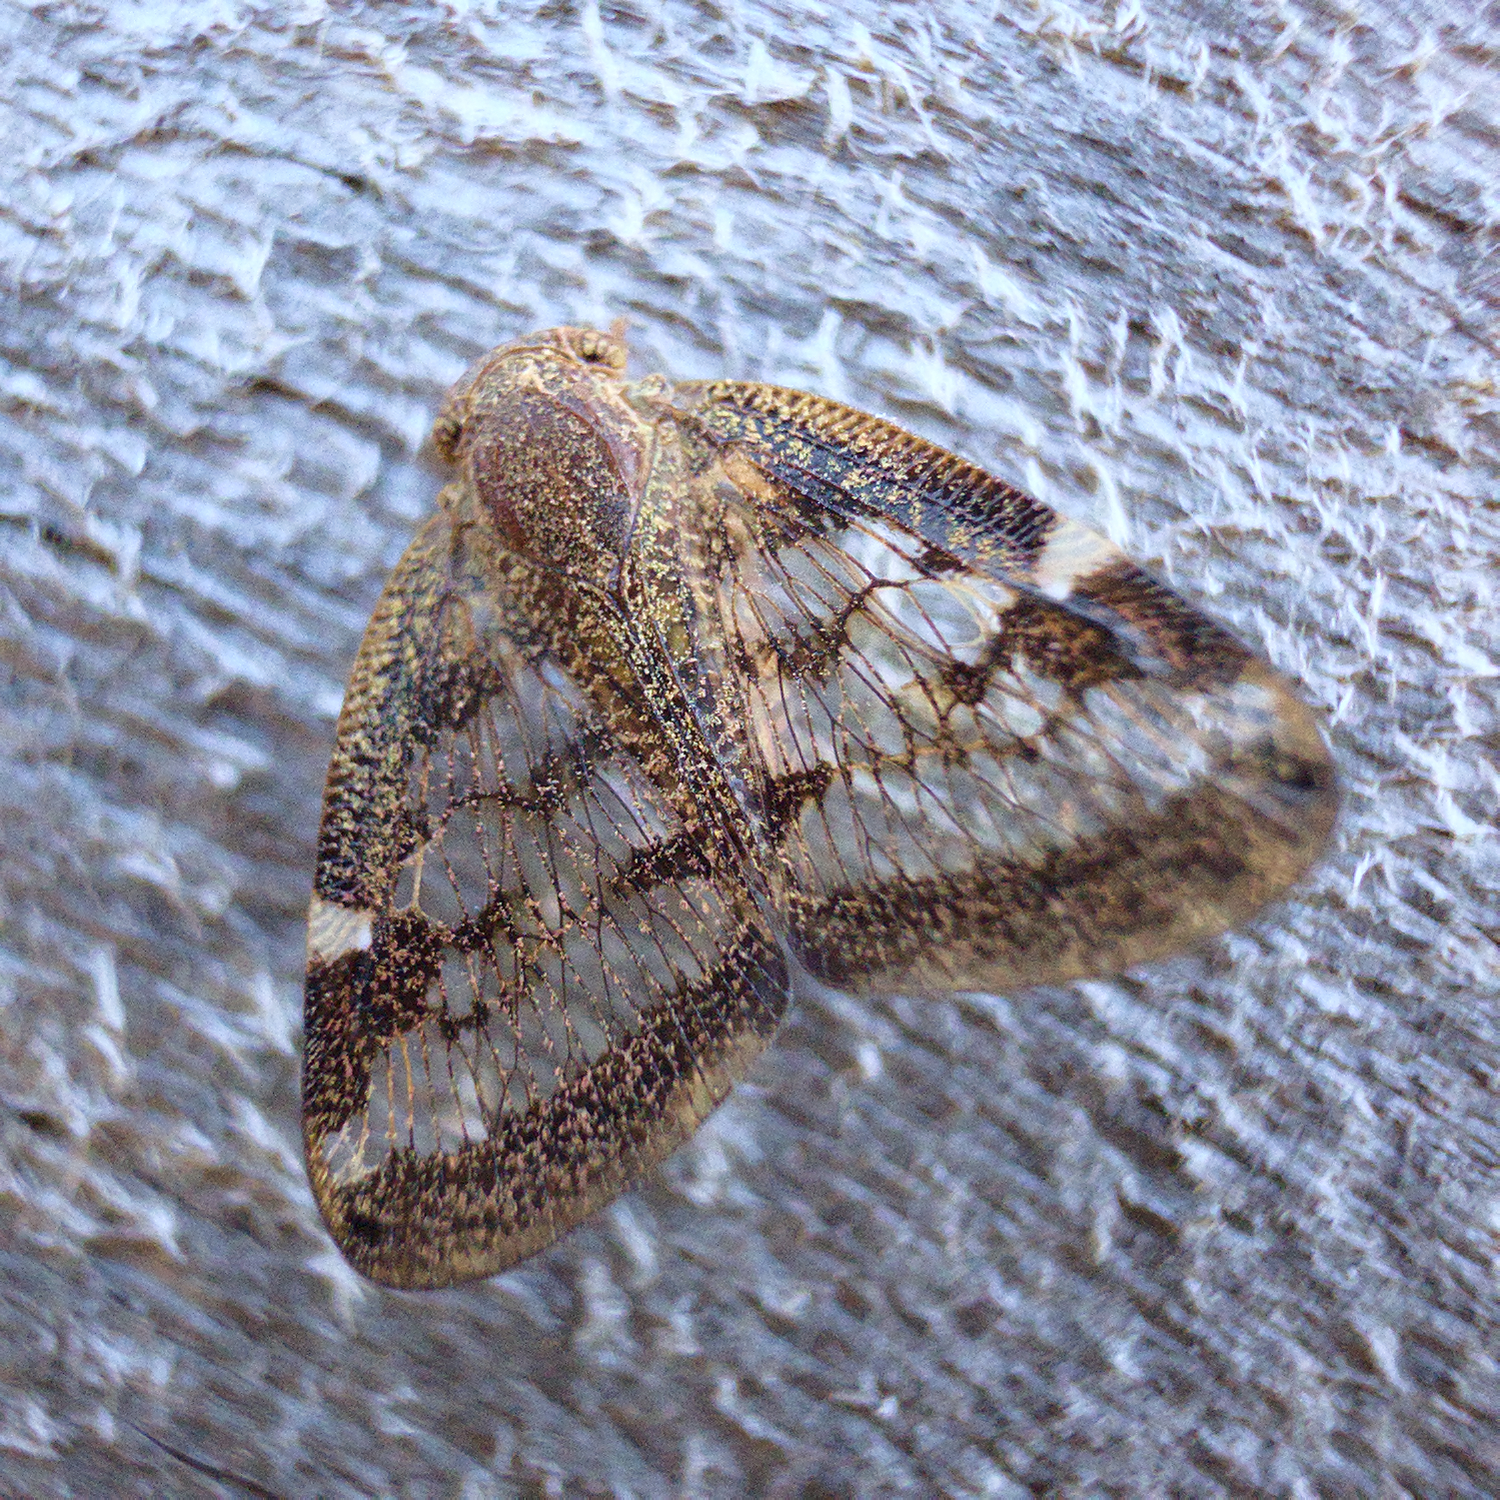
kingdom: Animalia
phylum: Arthropoda
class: Insecta
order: Hemiptera
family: Ricaniidae
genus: Scolypopa
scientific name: Scolypopa australis
